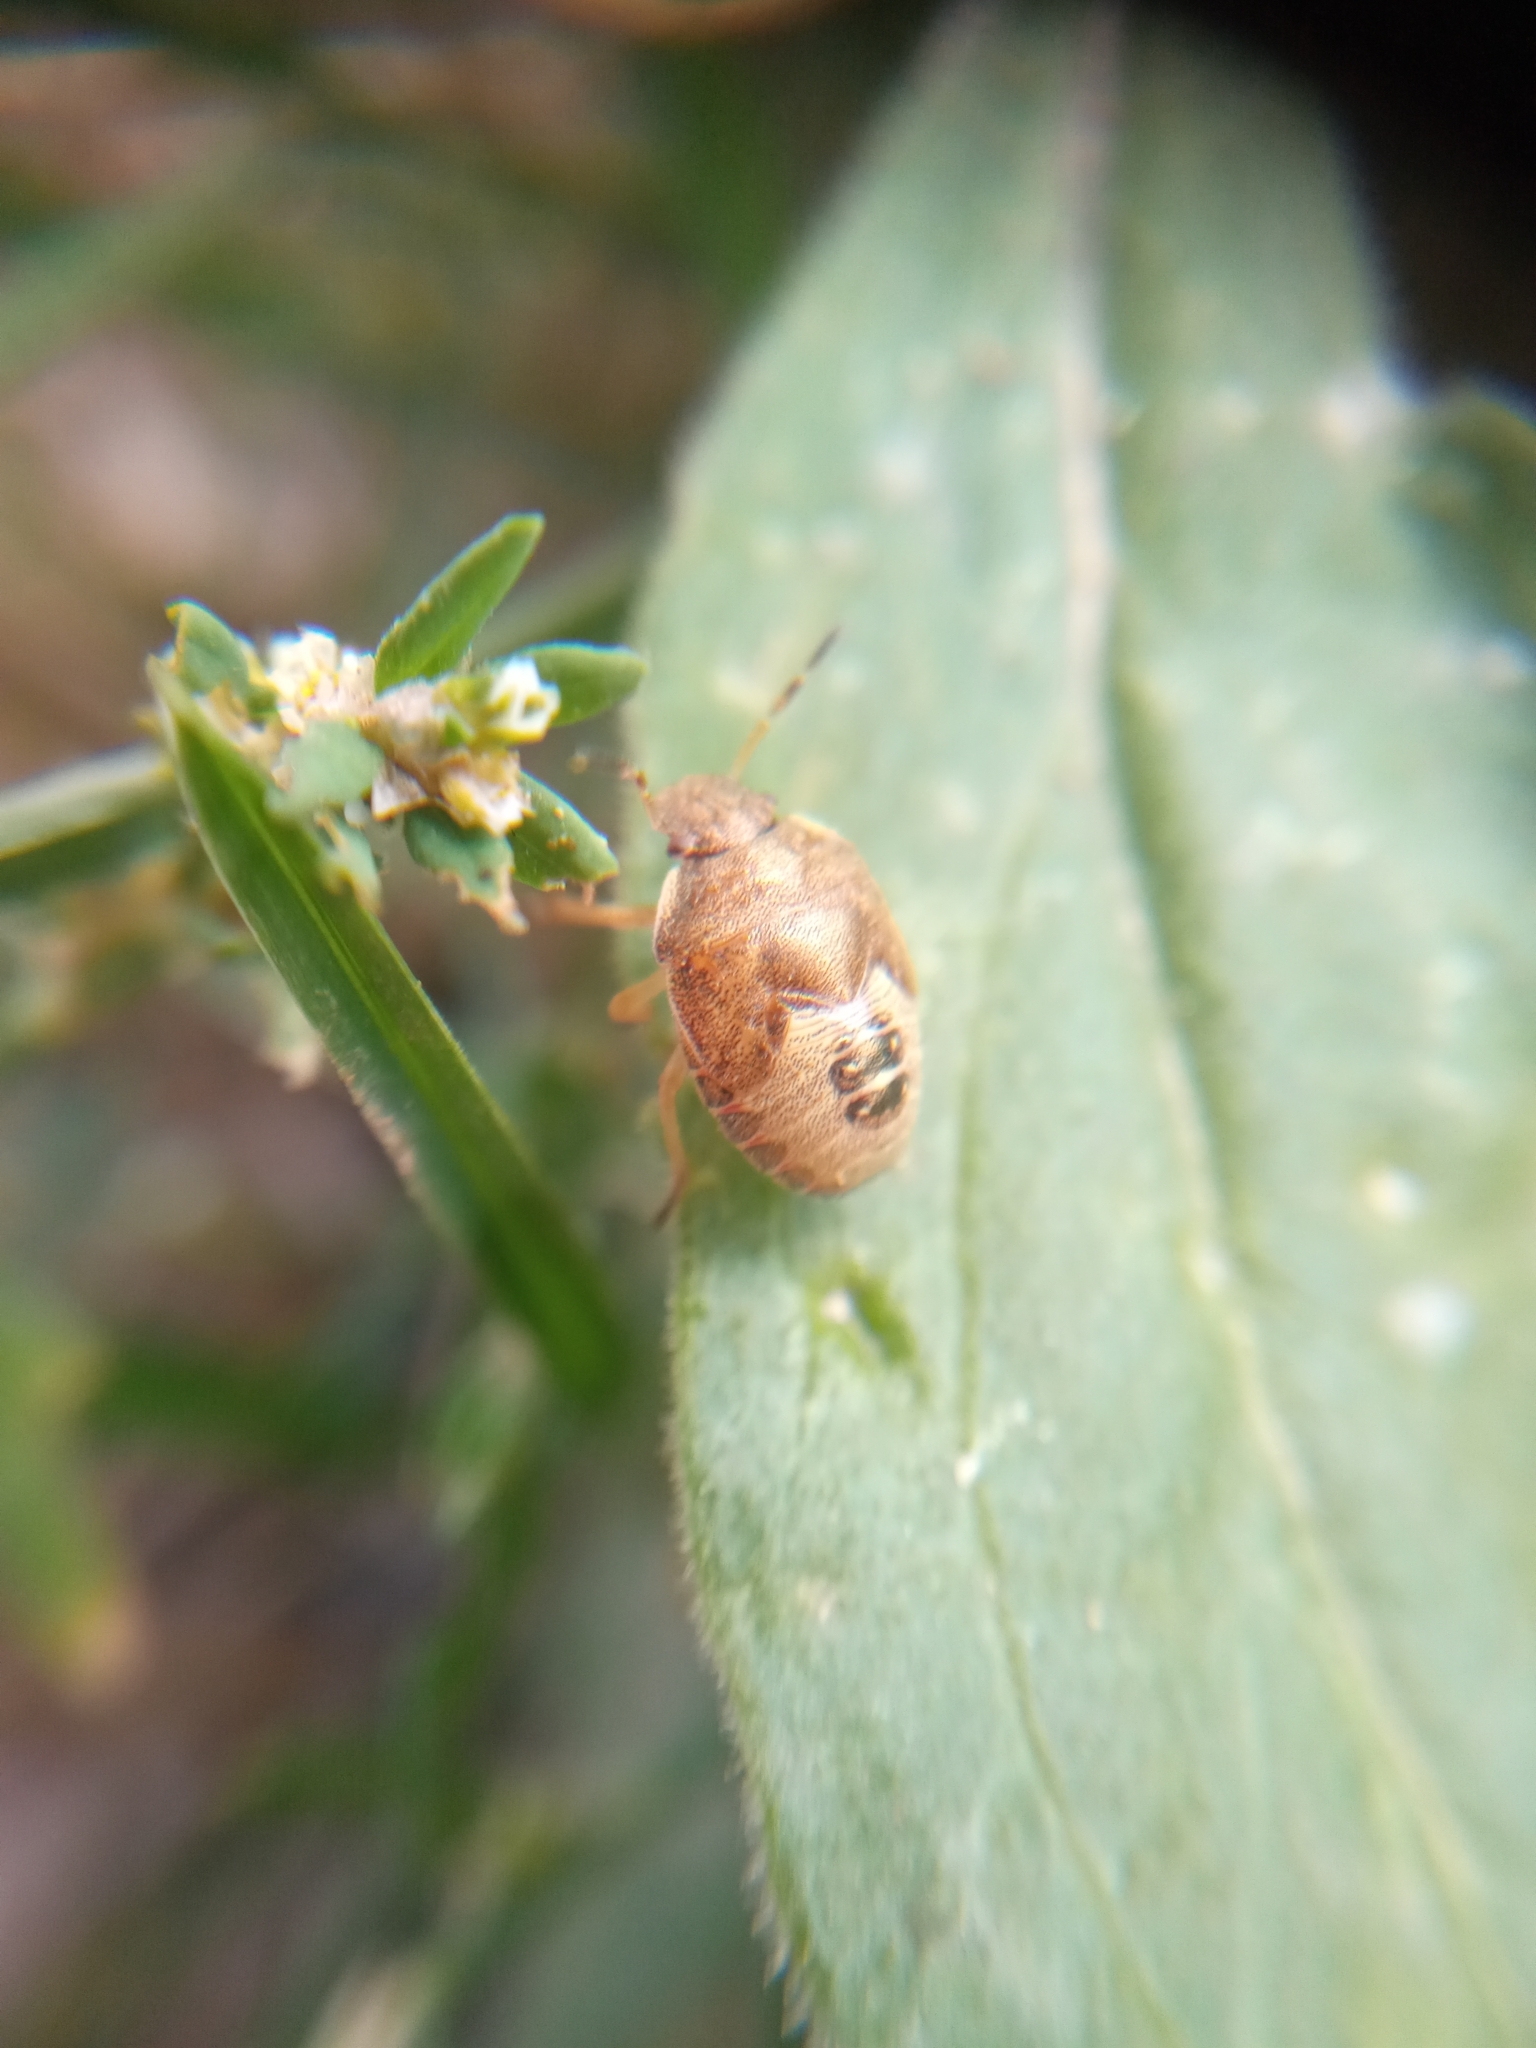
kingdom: Animalia
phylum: Arthropoda
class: Insecta
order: Hemiptera
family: Pentatomidae
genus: Holcostethus
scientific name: Holcostethus strictus
